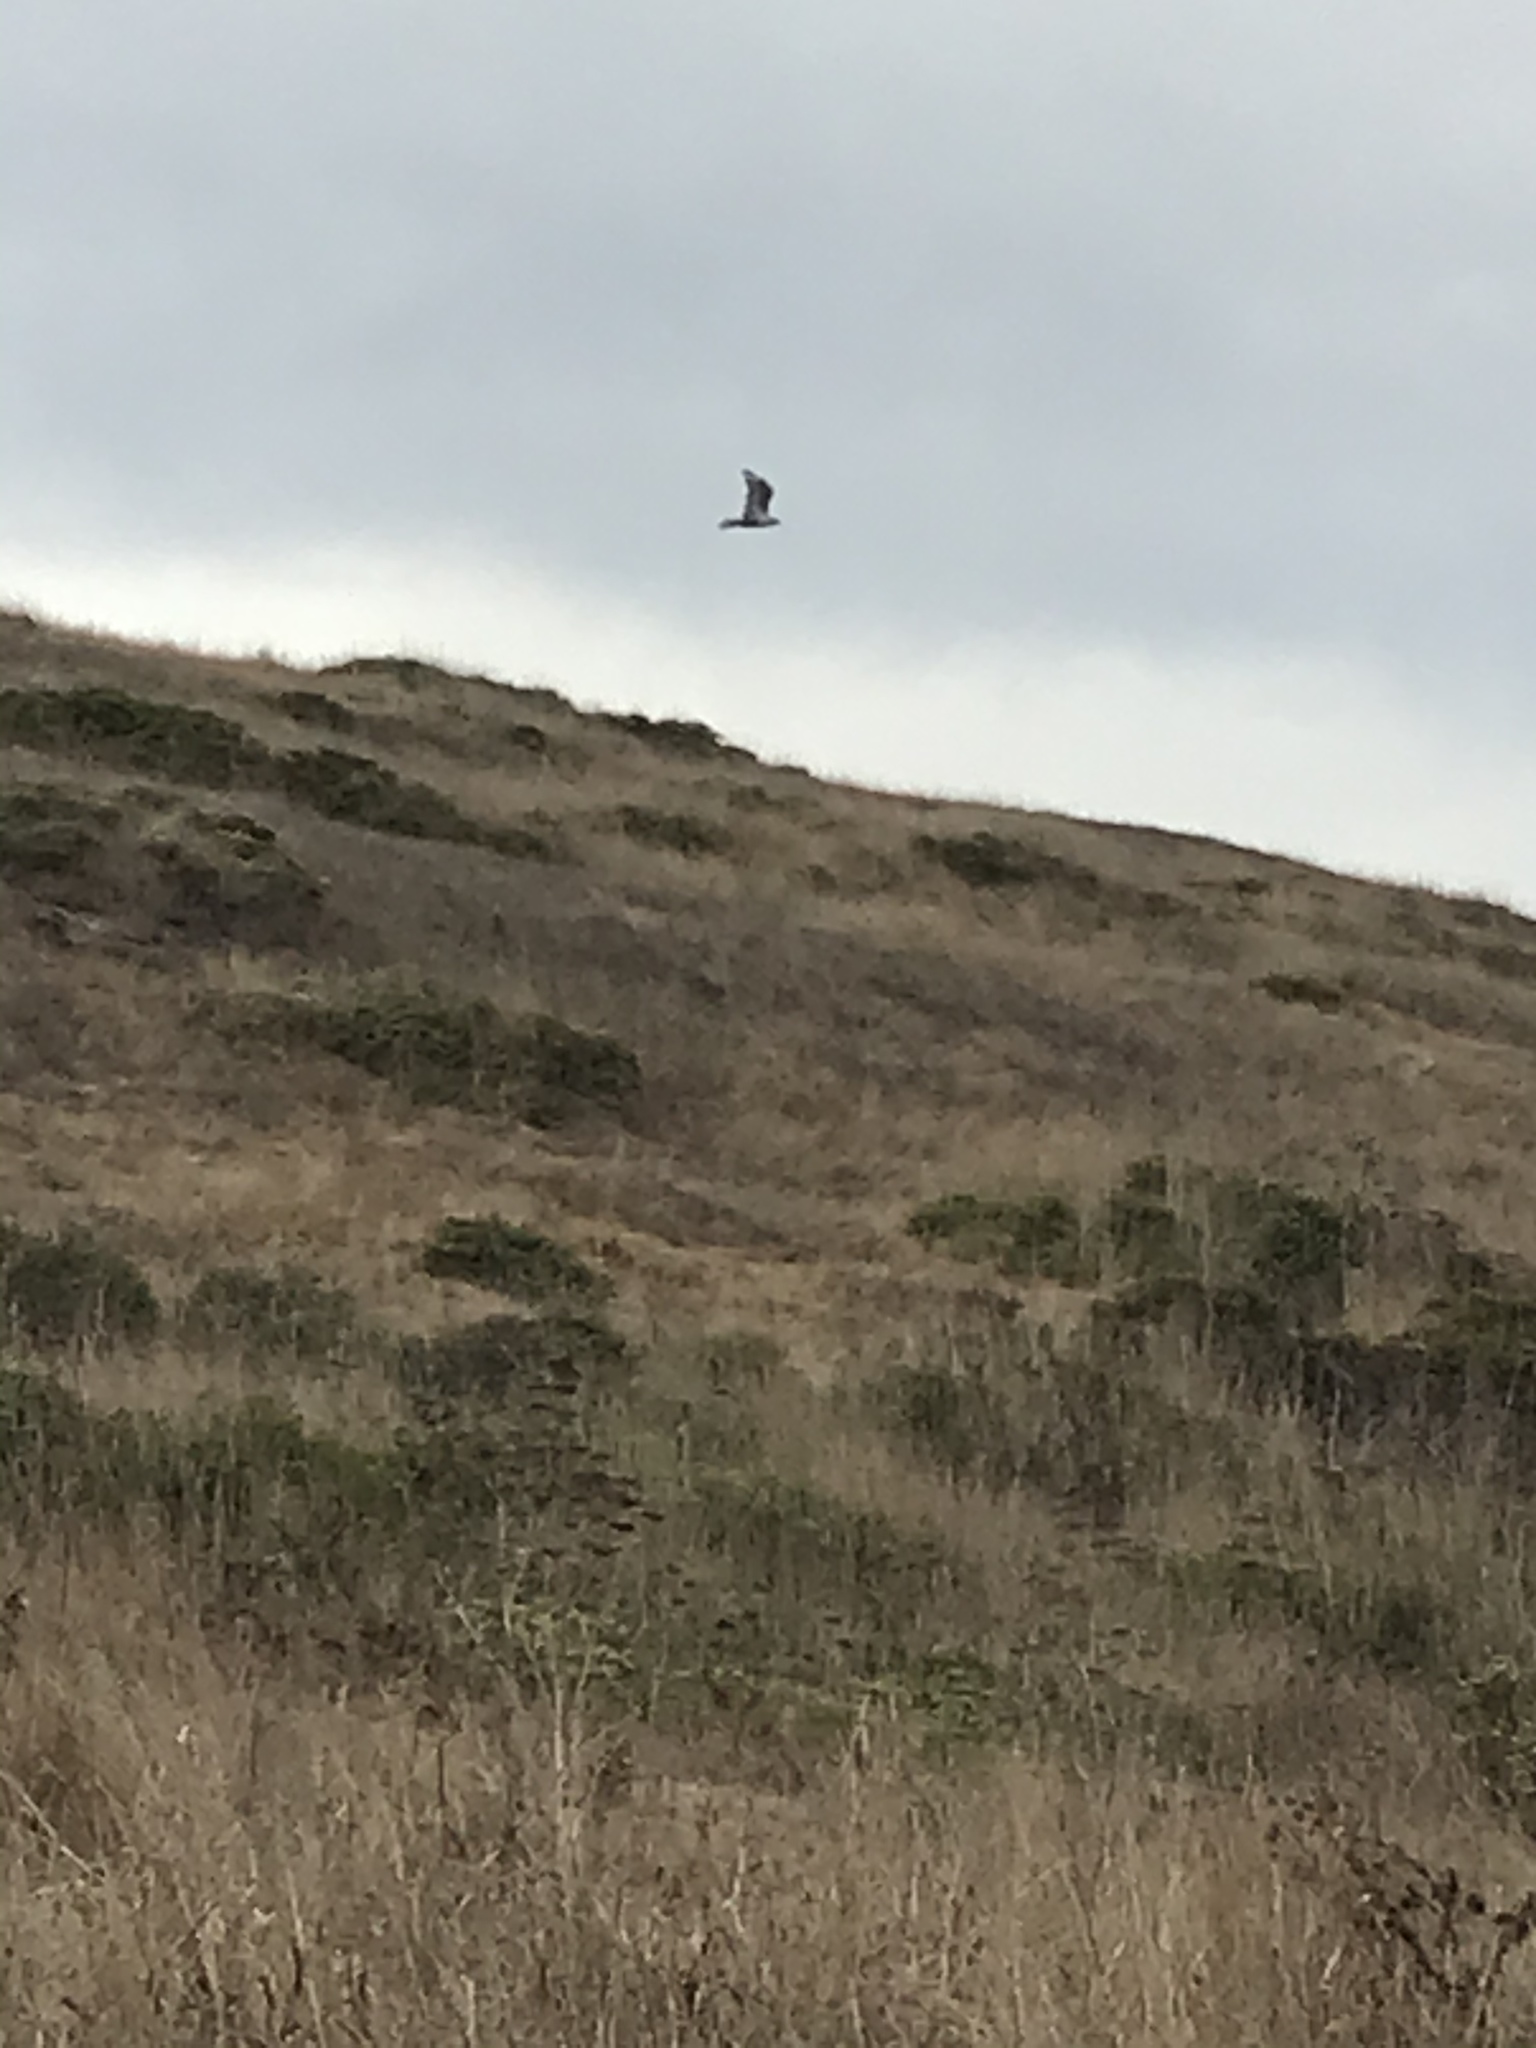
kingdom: Animalia
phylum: Chordata
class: Aves
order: Accipitriformes
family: Accipitridae
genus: Elanus
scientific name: Elanus leucurus
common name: White-tailed kite
